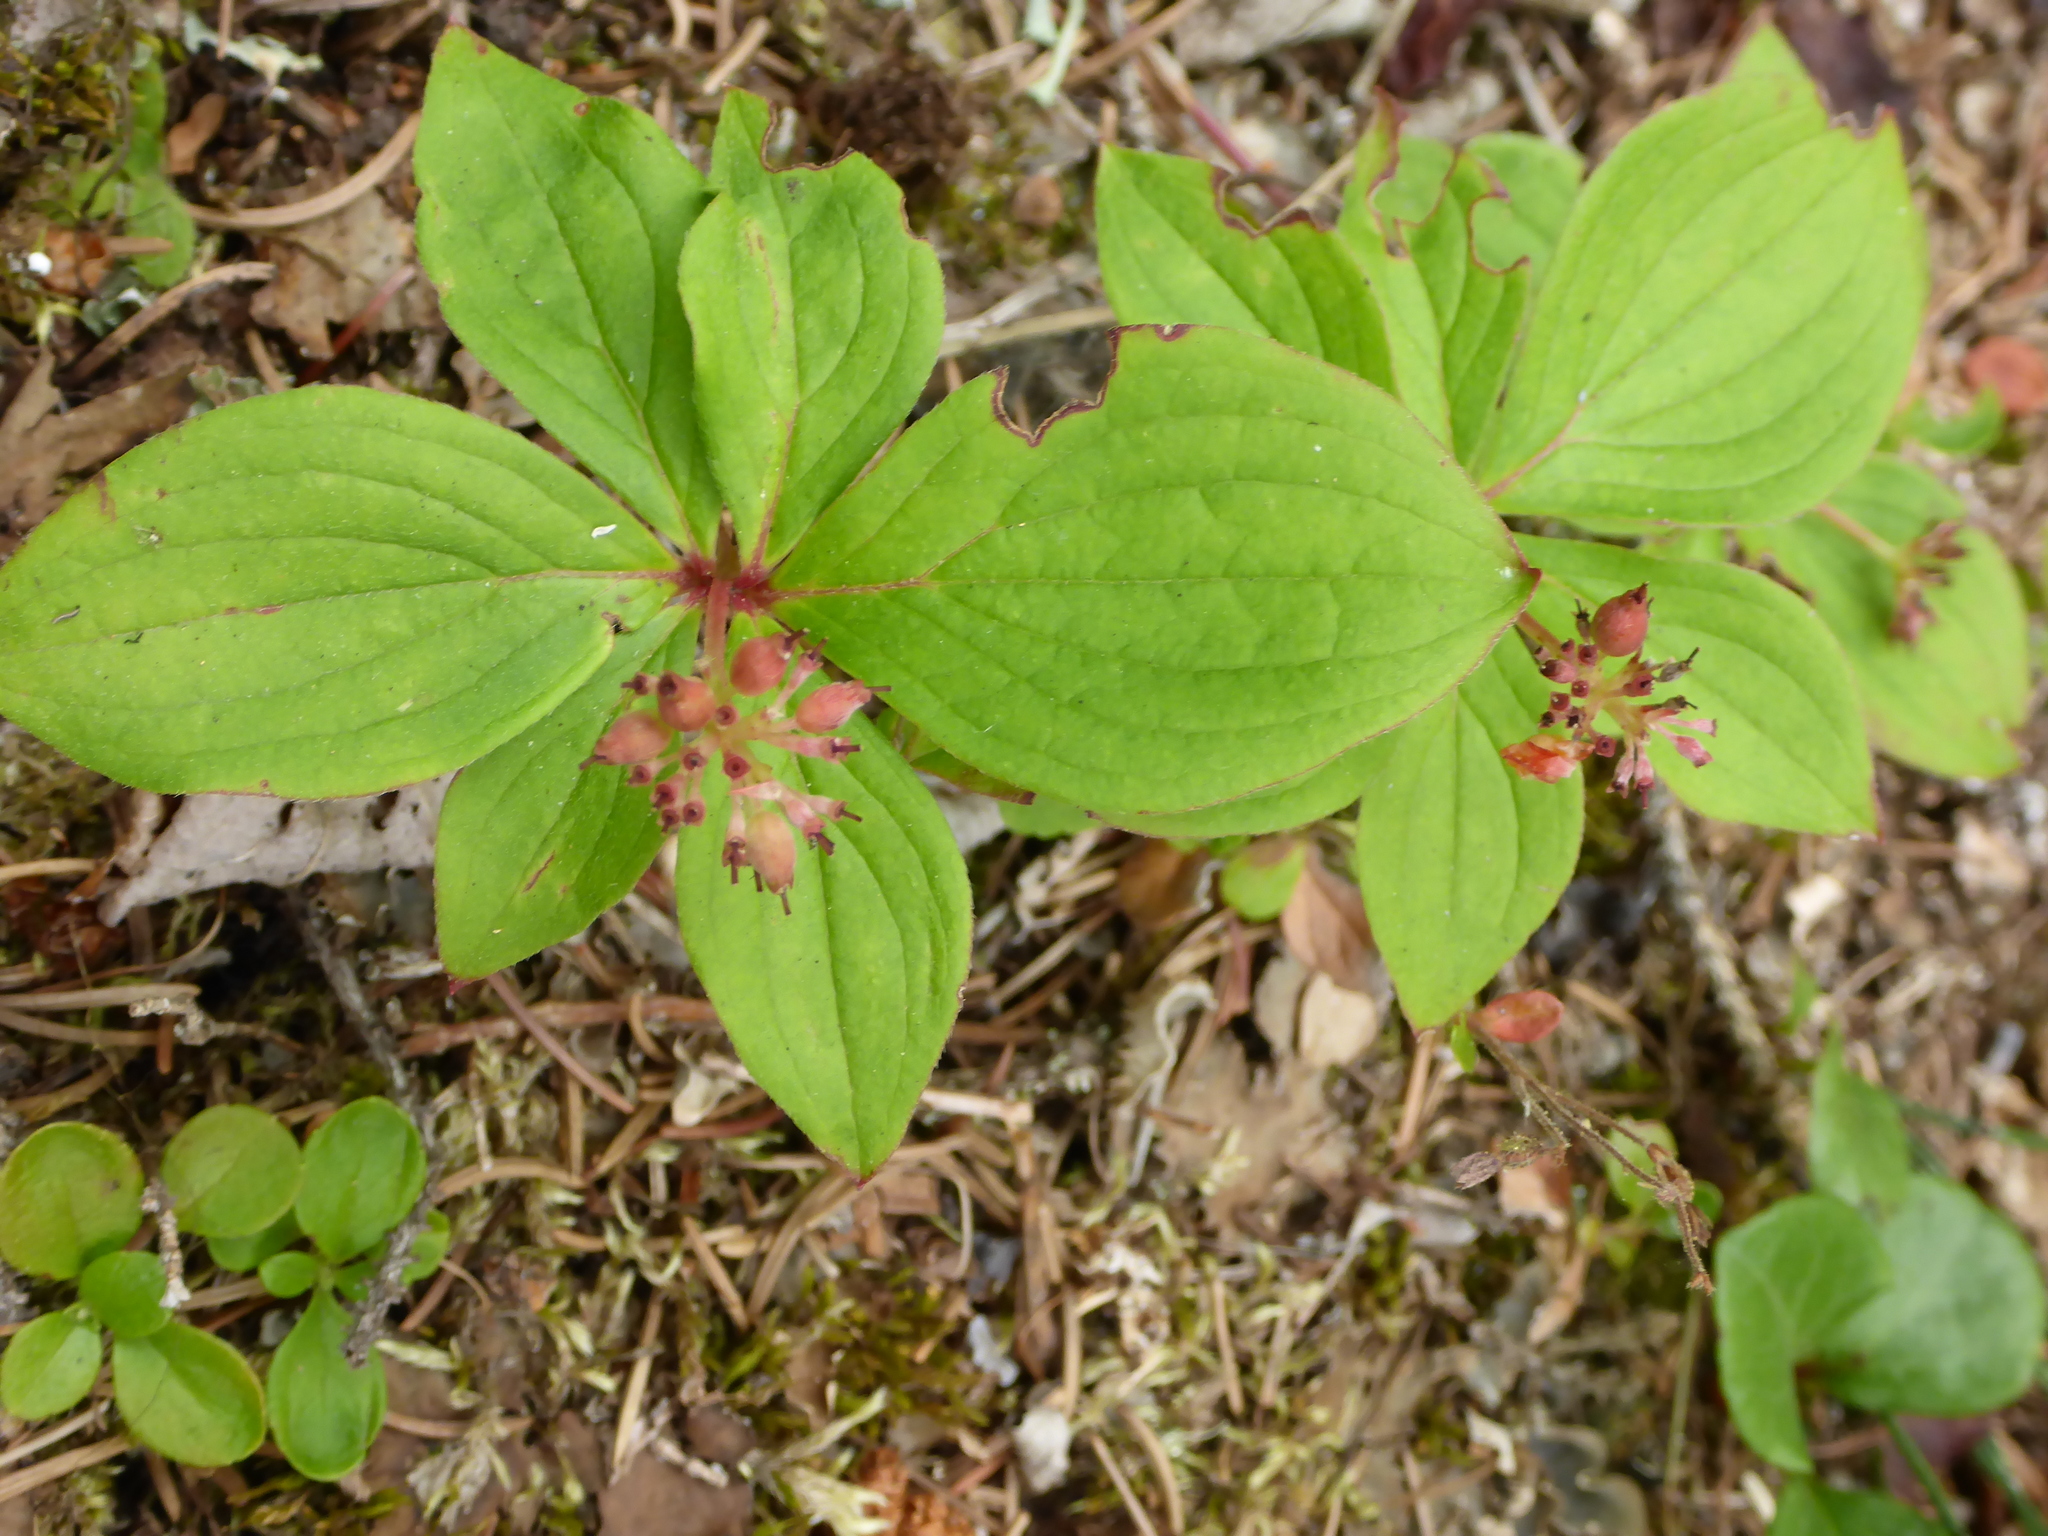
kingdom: Plantae
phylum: Tracheophyta
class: Magnoliopsida
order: Cornales
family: Cornaceae
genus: Cornus
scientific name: Cornus canadensis
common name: Creeping dogwood
